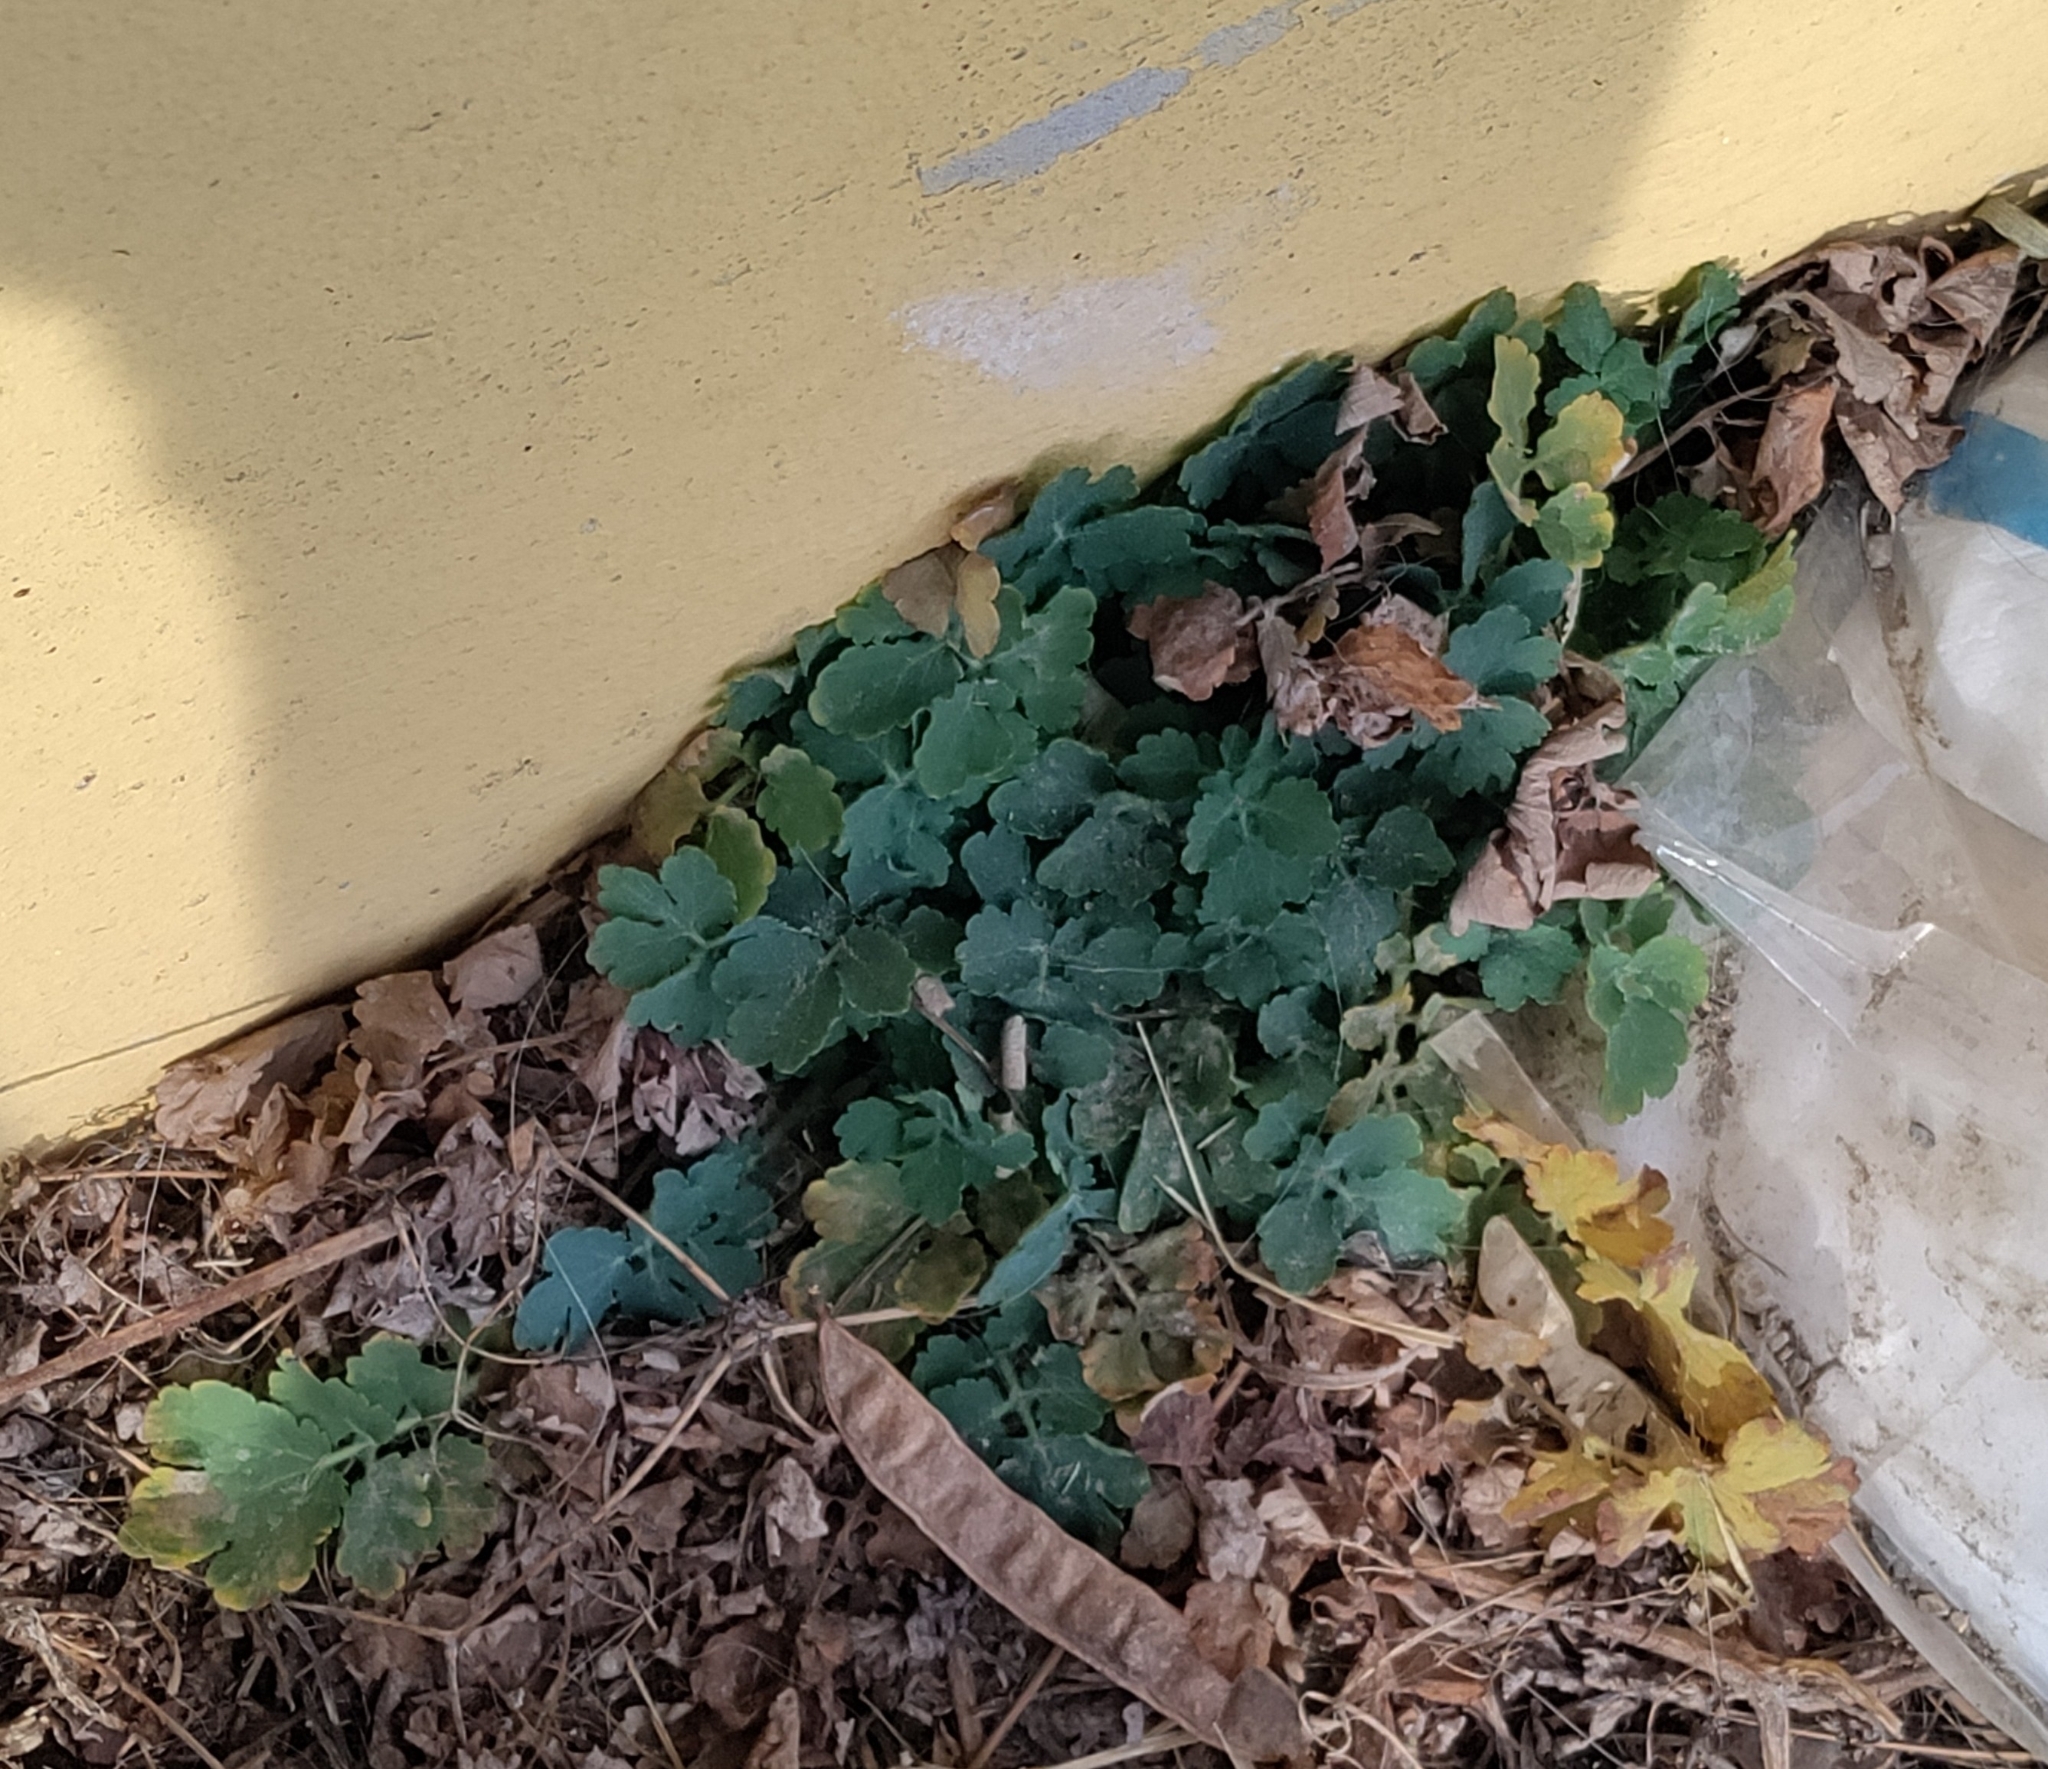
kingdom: Plantae
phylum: Tracheophyta
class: Magnoliopsida
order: Ranunculales
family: Papaveraceae
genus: Chelidonium
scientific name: Chelidonium majus
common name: Greater celandine
